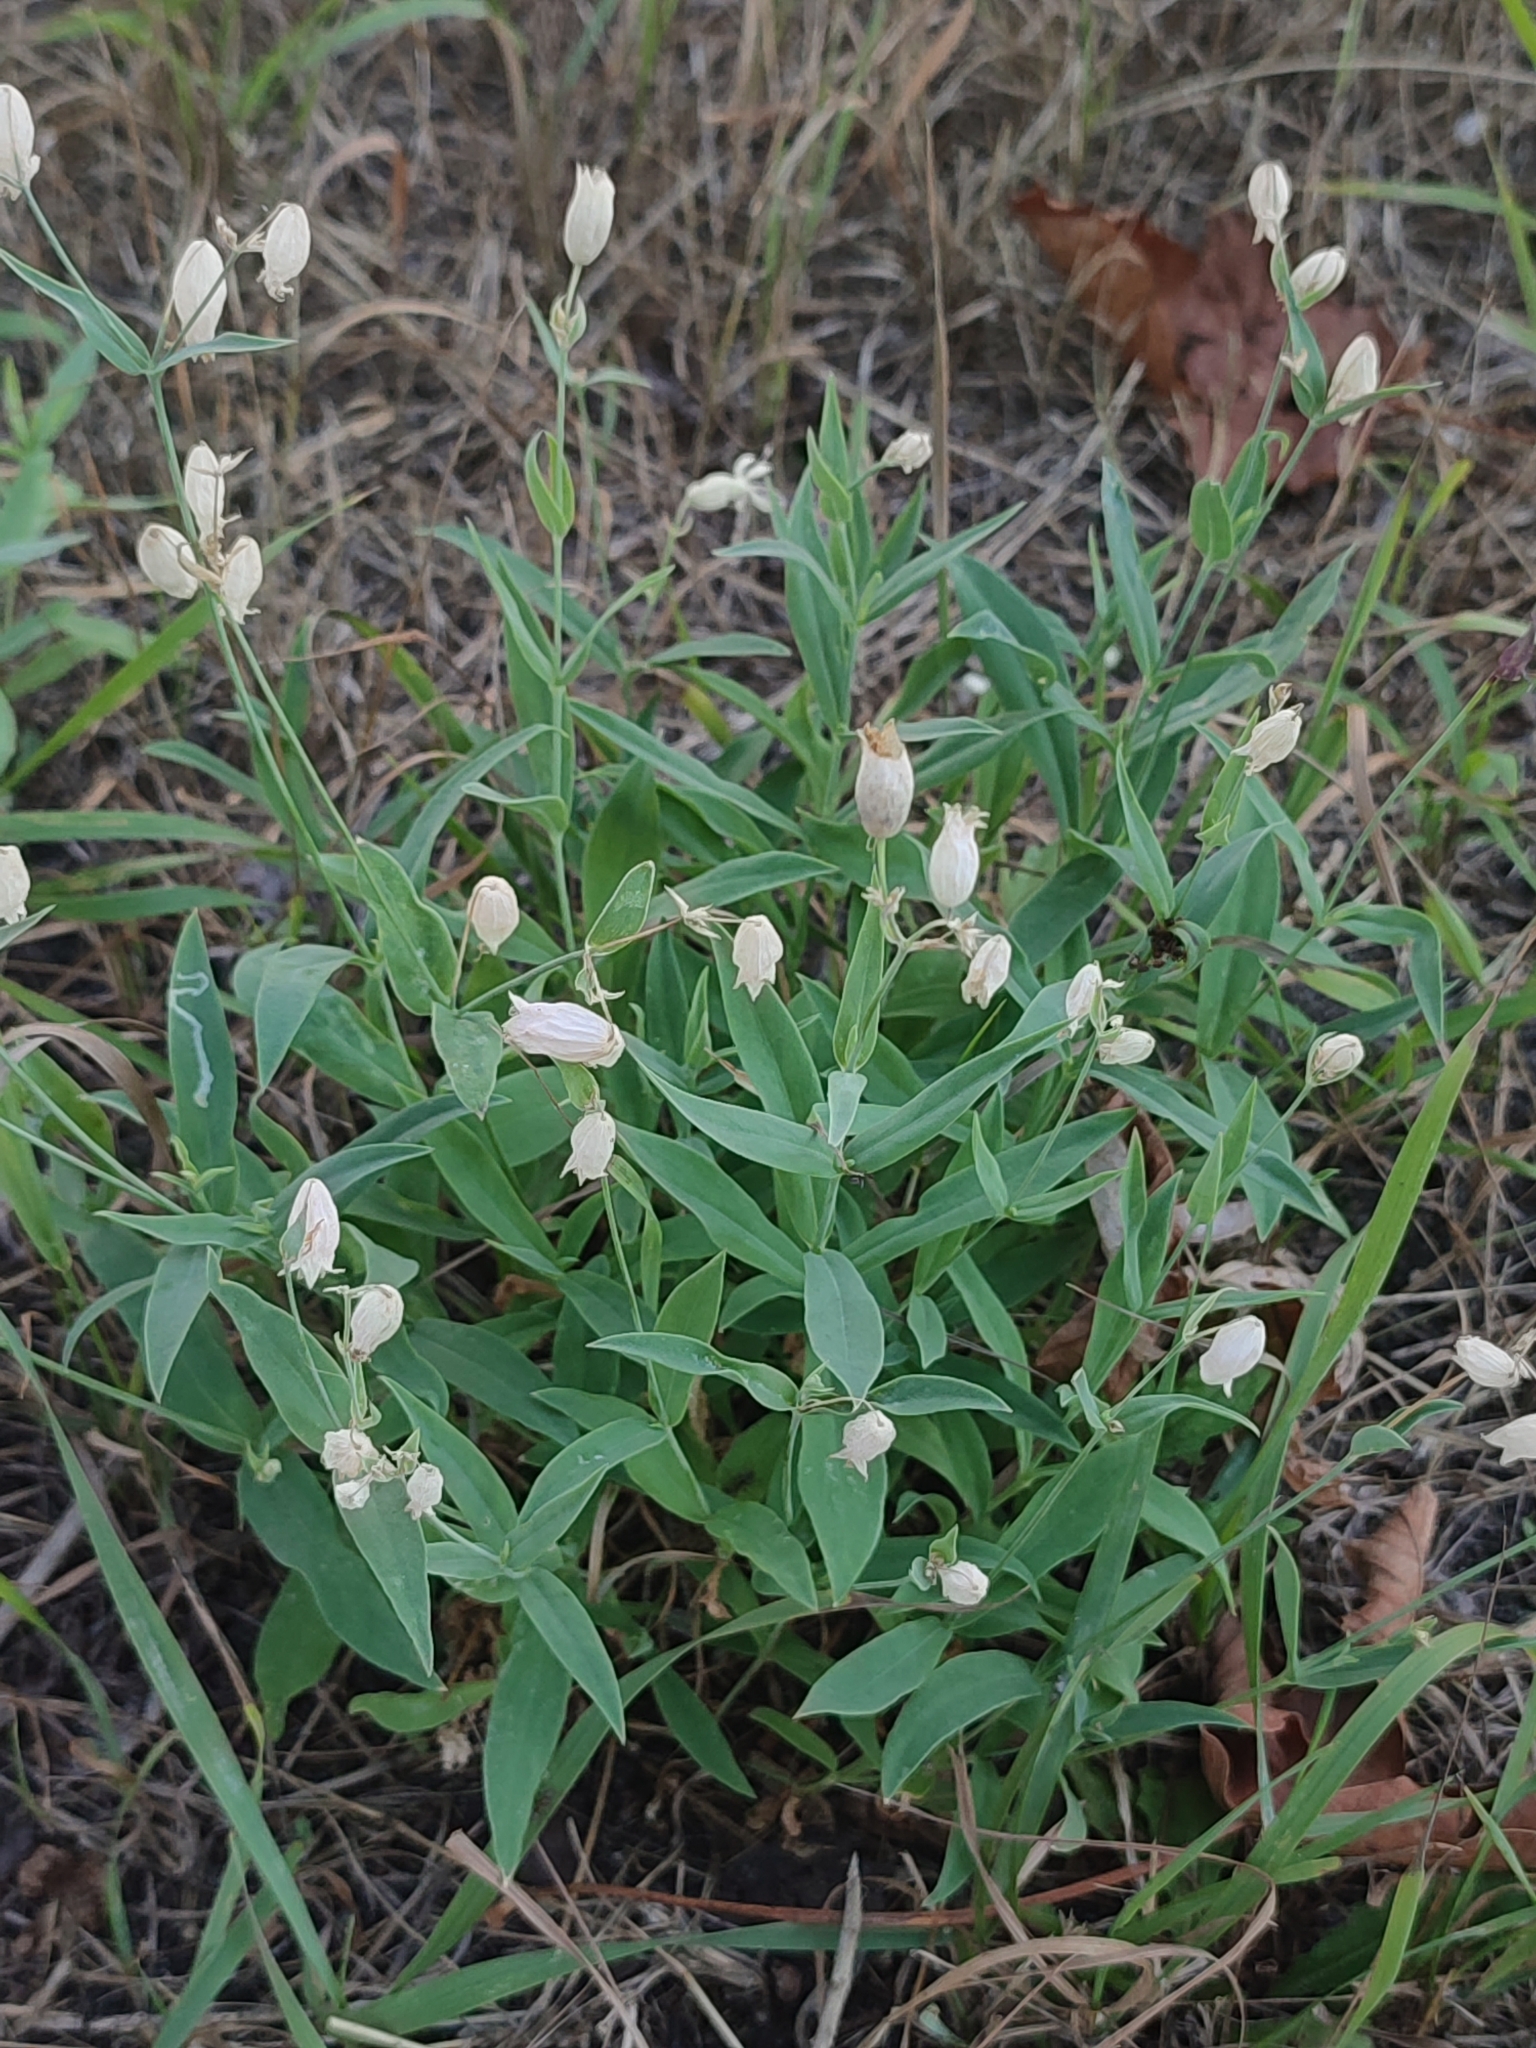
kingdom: Plantae
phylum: Tracheophyta
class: Magnoliopsida
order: Caryophyllales
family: Caryophyllaceae
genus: Silene
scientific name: Silene vulgaris
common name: Bladder campion
